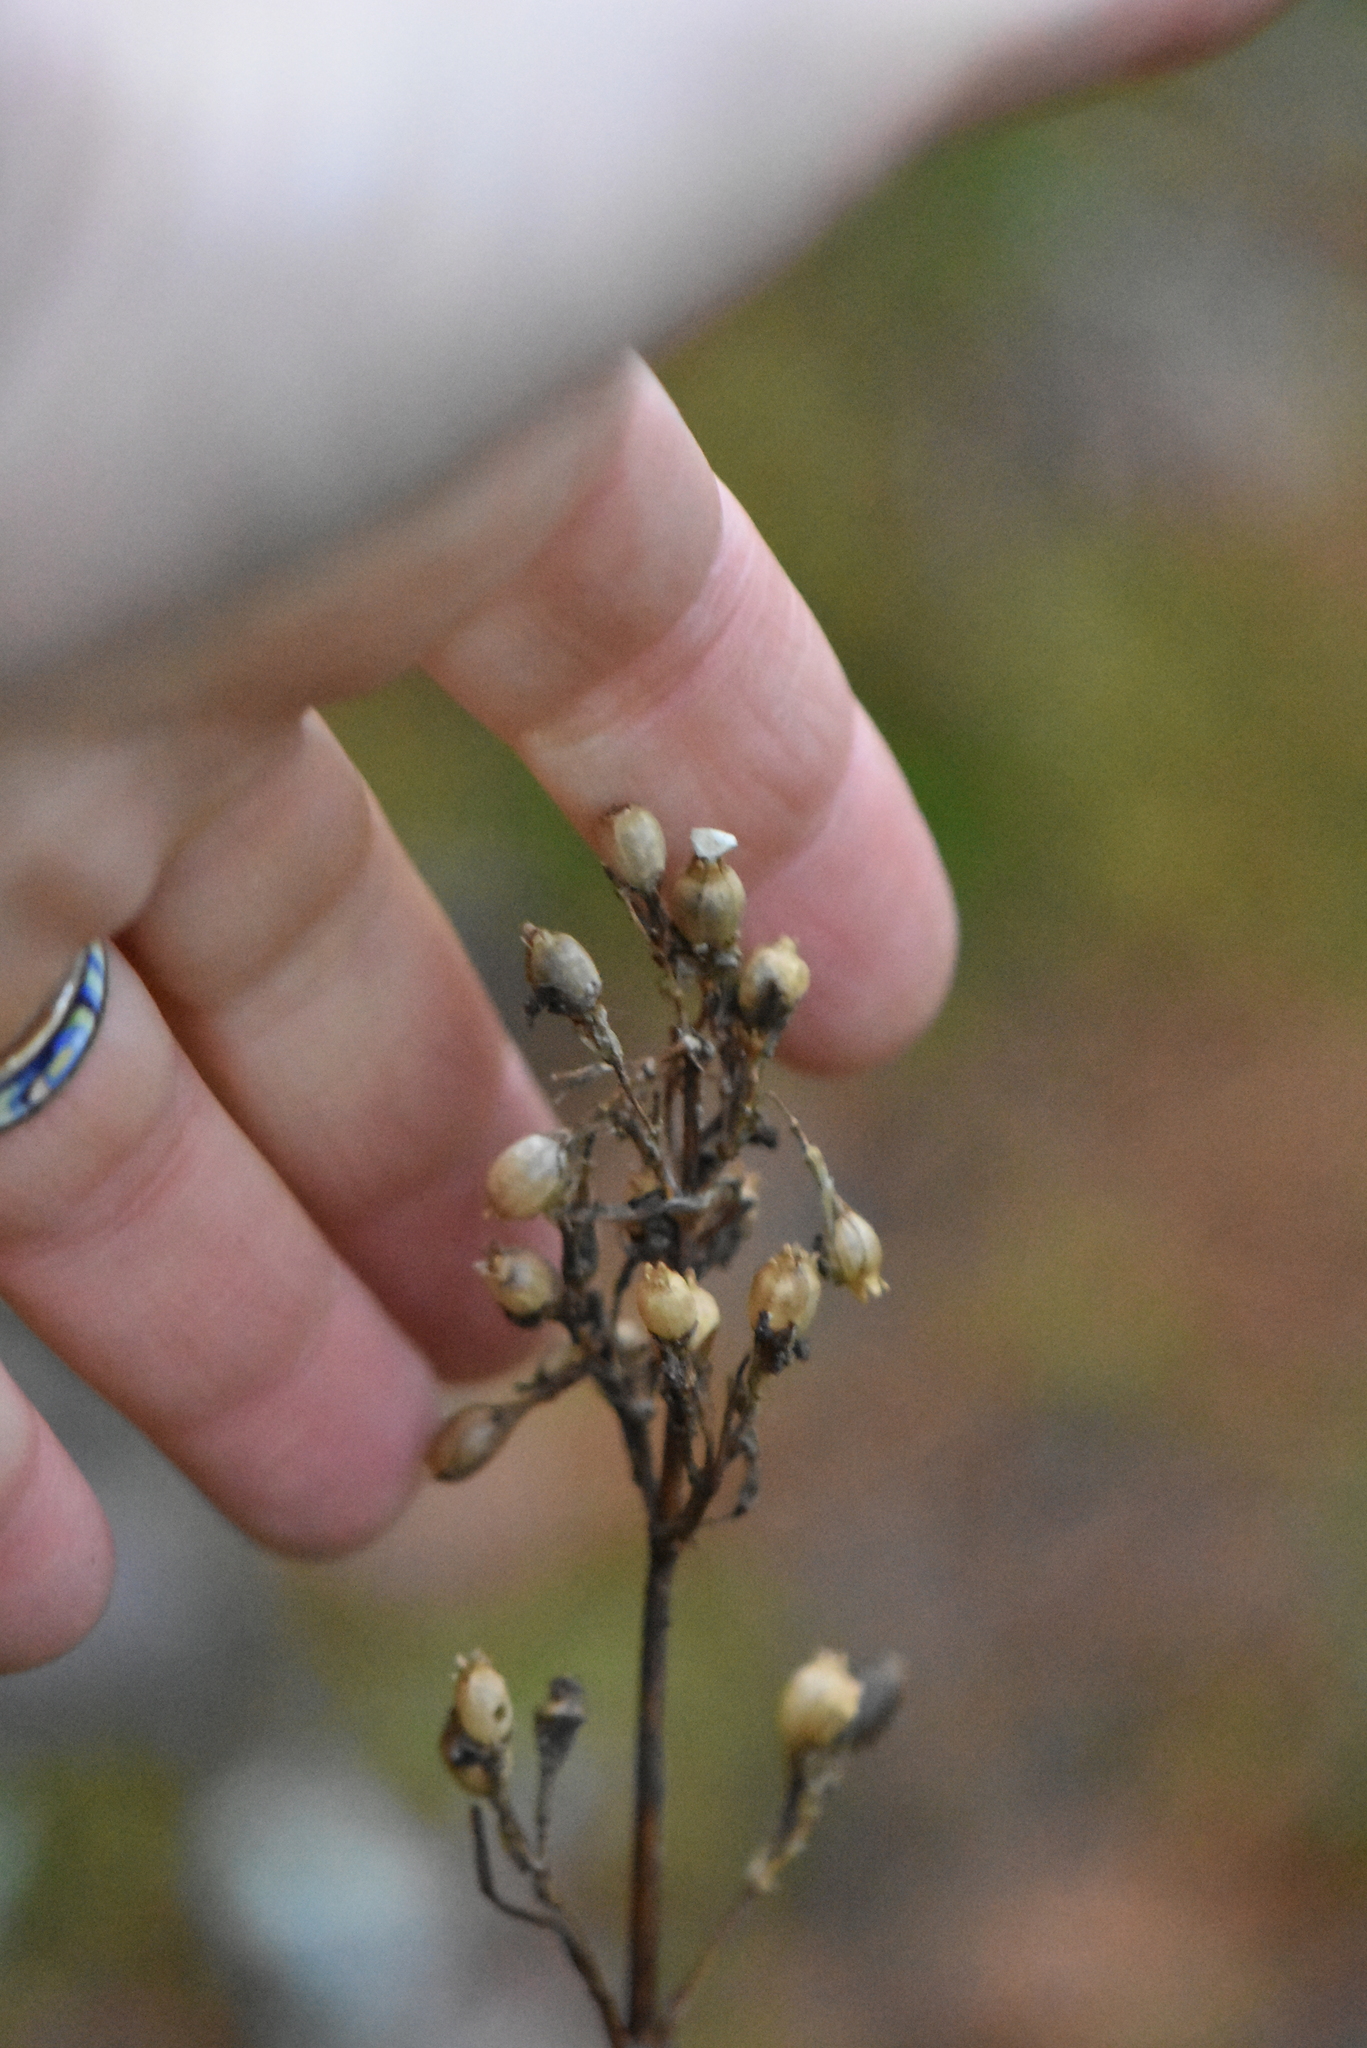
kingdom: Plantae
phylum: Tracheophyta
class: Magnoliopsida
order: Caryophyllales
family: Caryophyllaceae
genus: Viscaria
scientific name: Viscaria vulgaris
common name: Clammy campion
